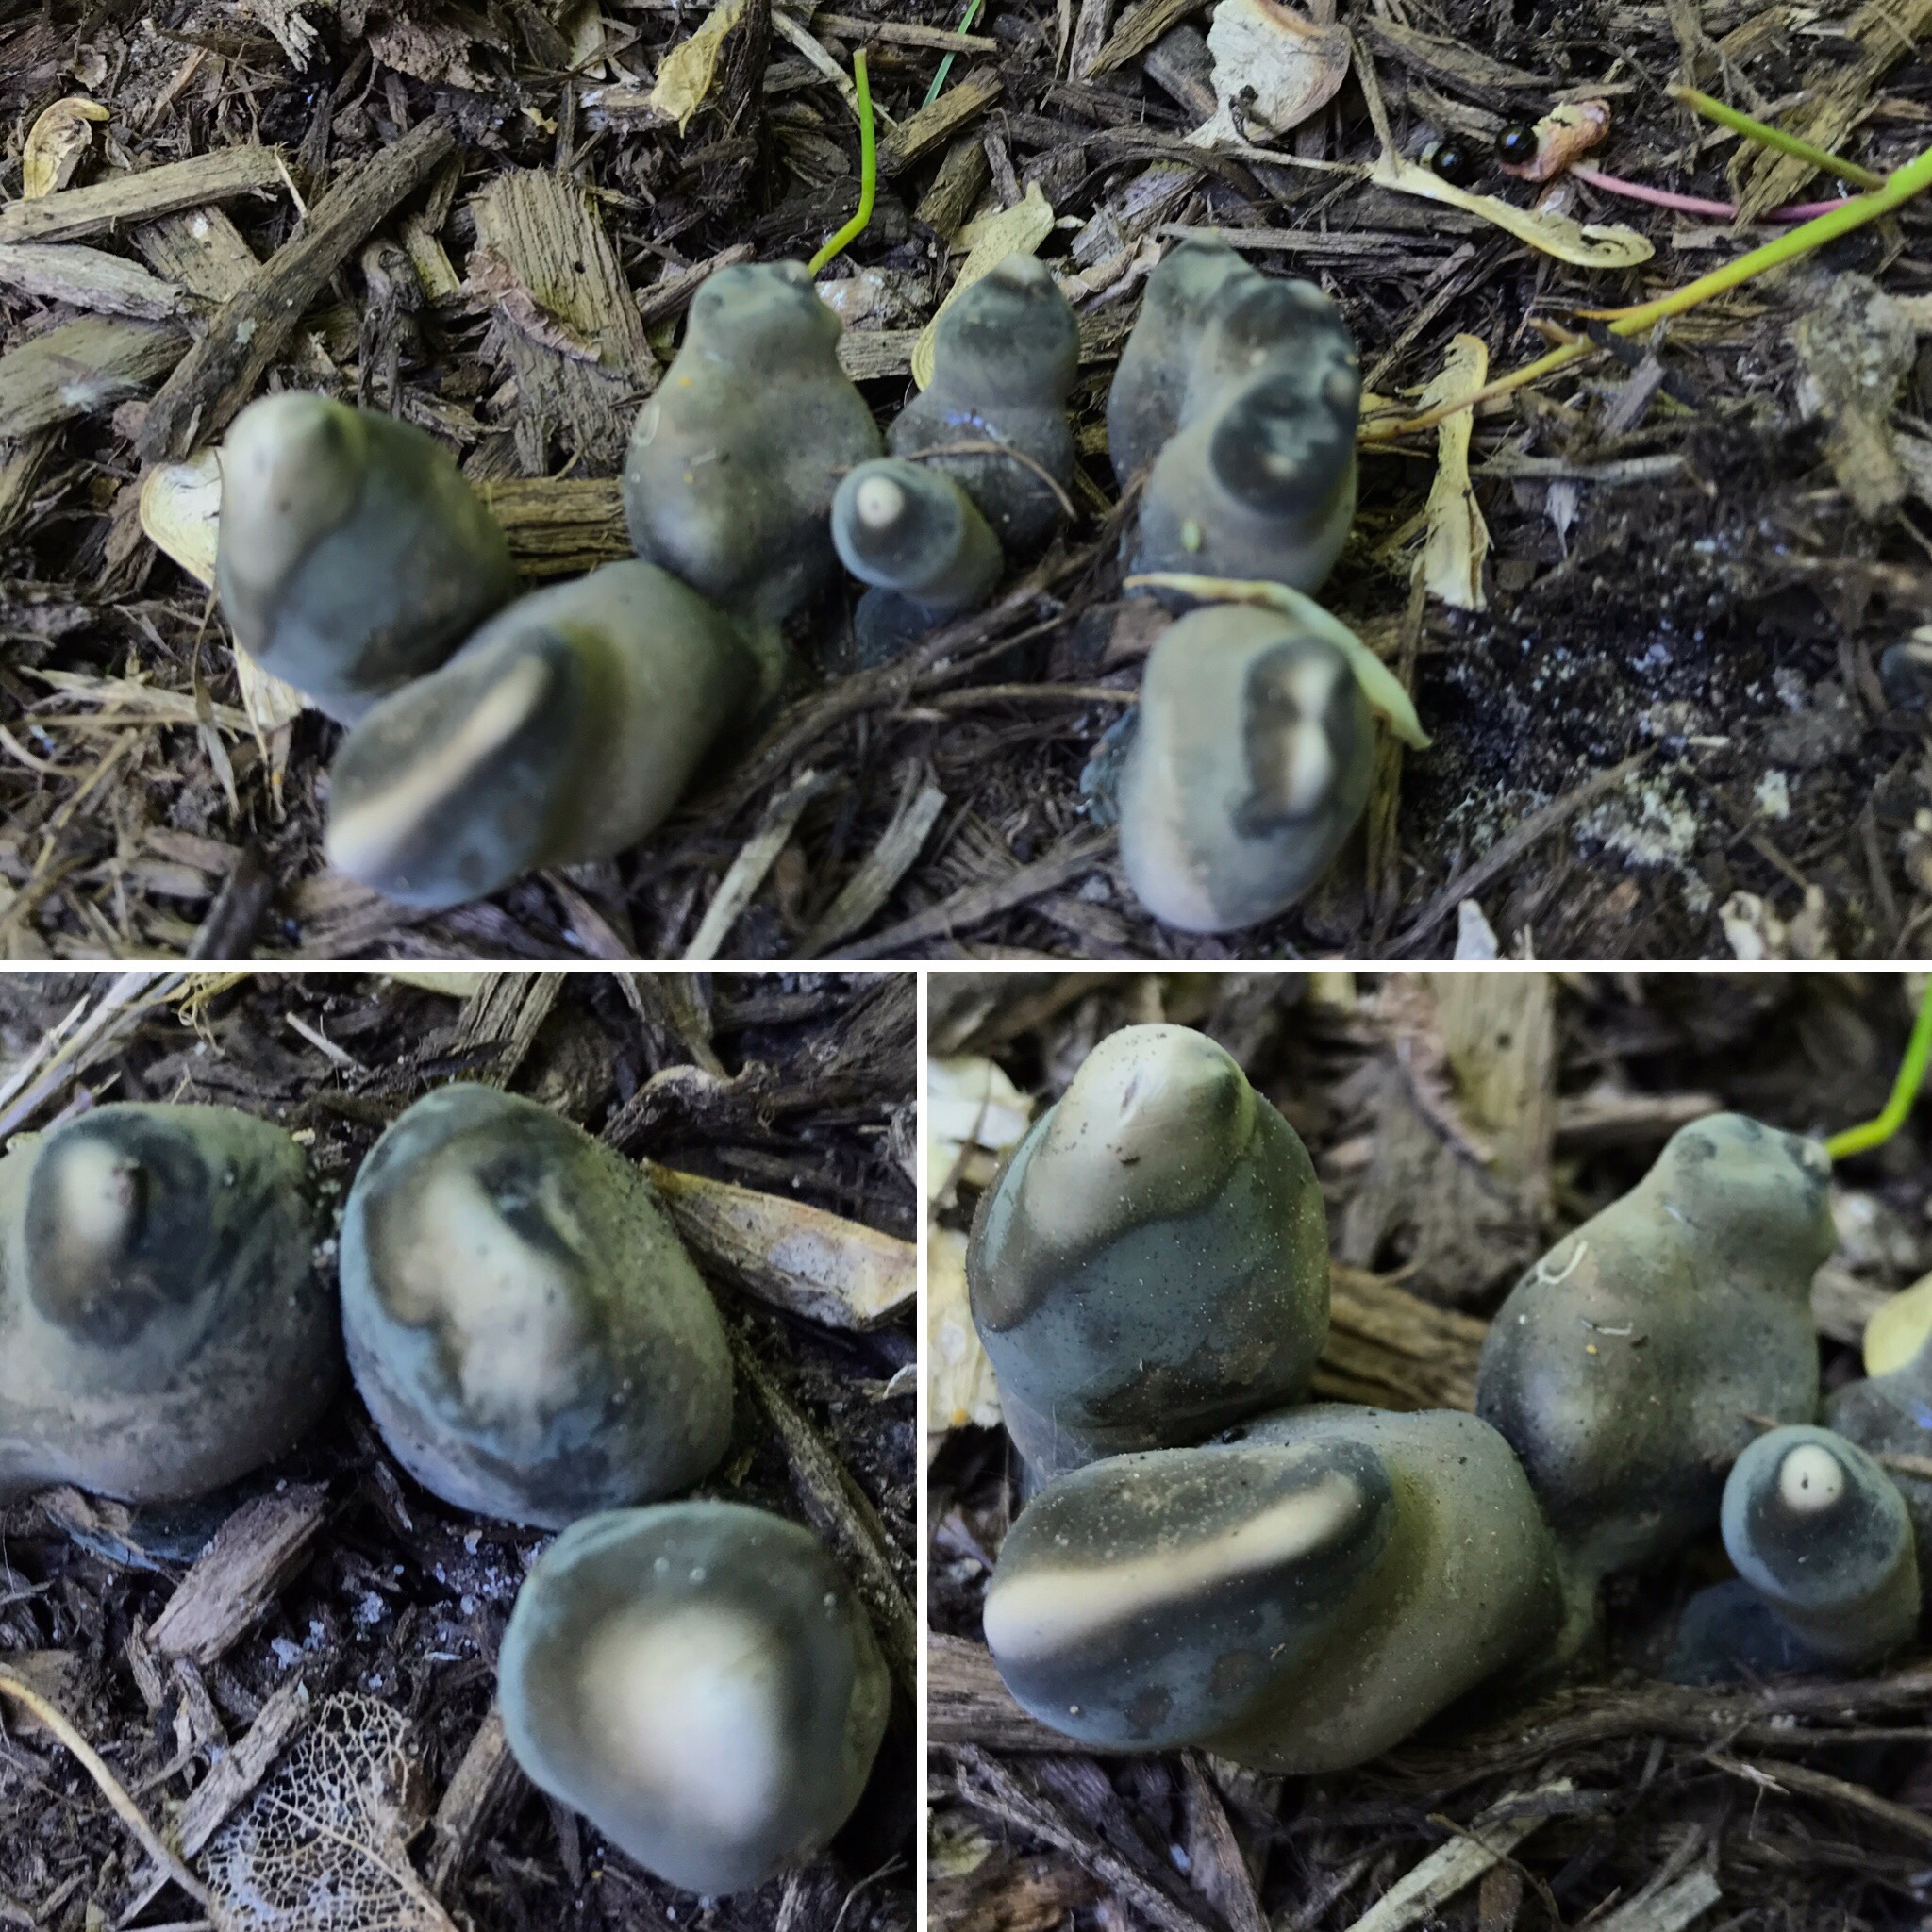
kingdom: Fungi
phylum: Ascomycota
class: Sordariomycetes
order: Xylariales
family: Xylariaceae
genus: Xylaria
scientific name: Xylaria polymorpha
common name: Dead man's fingers
